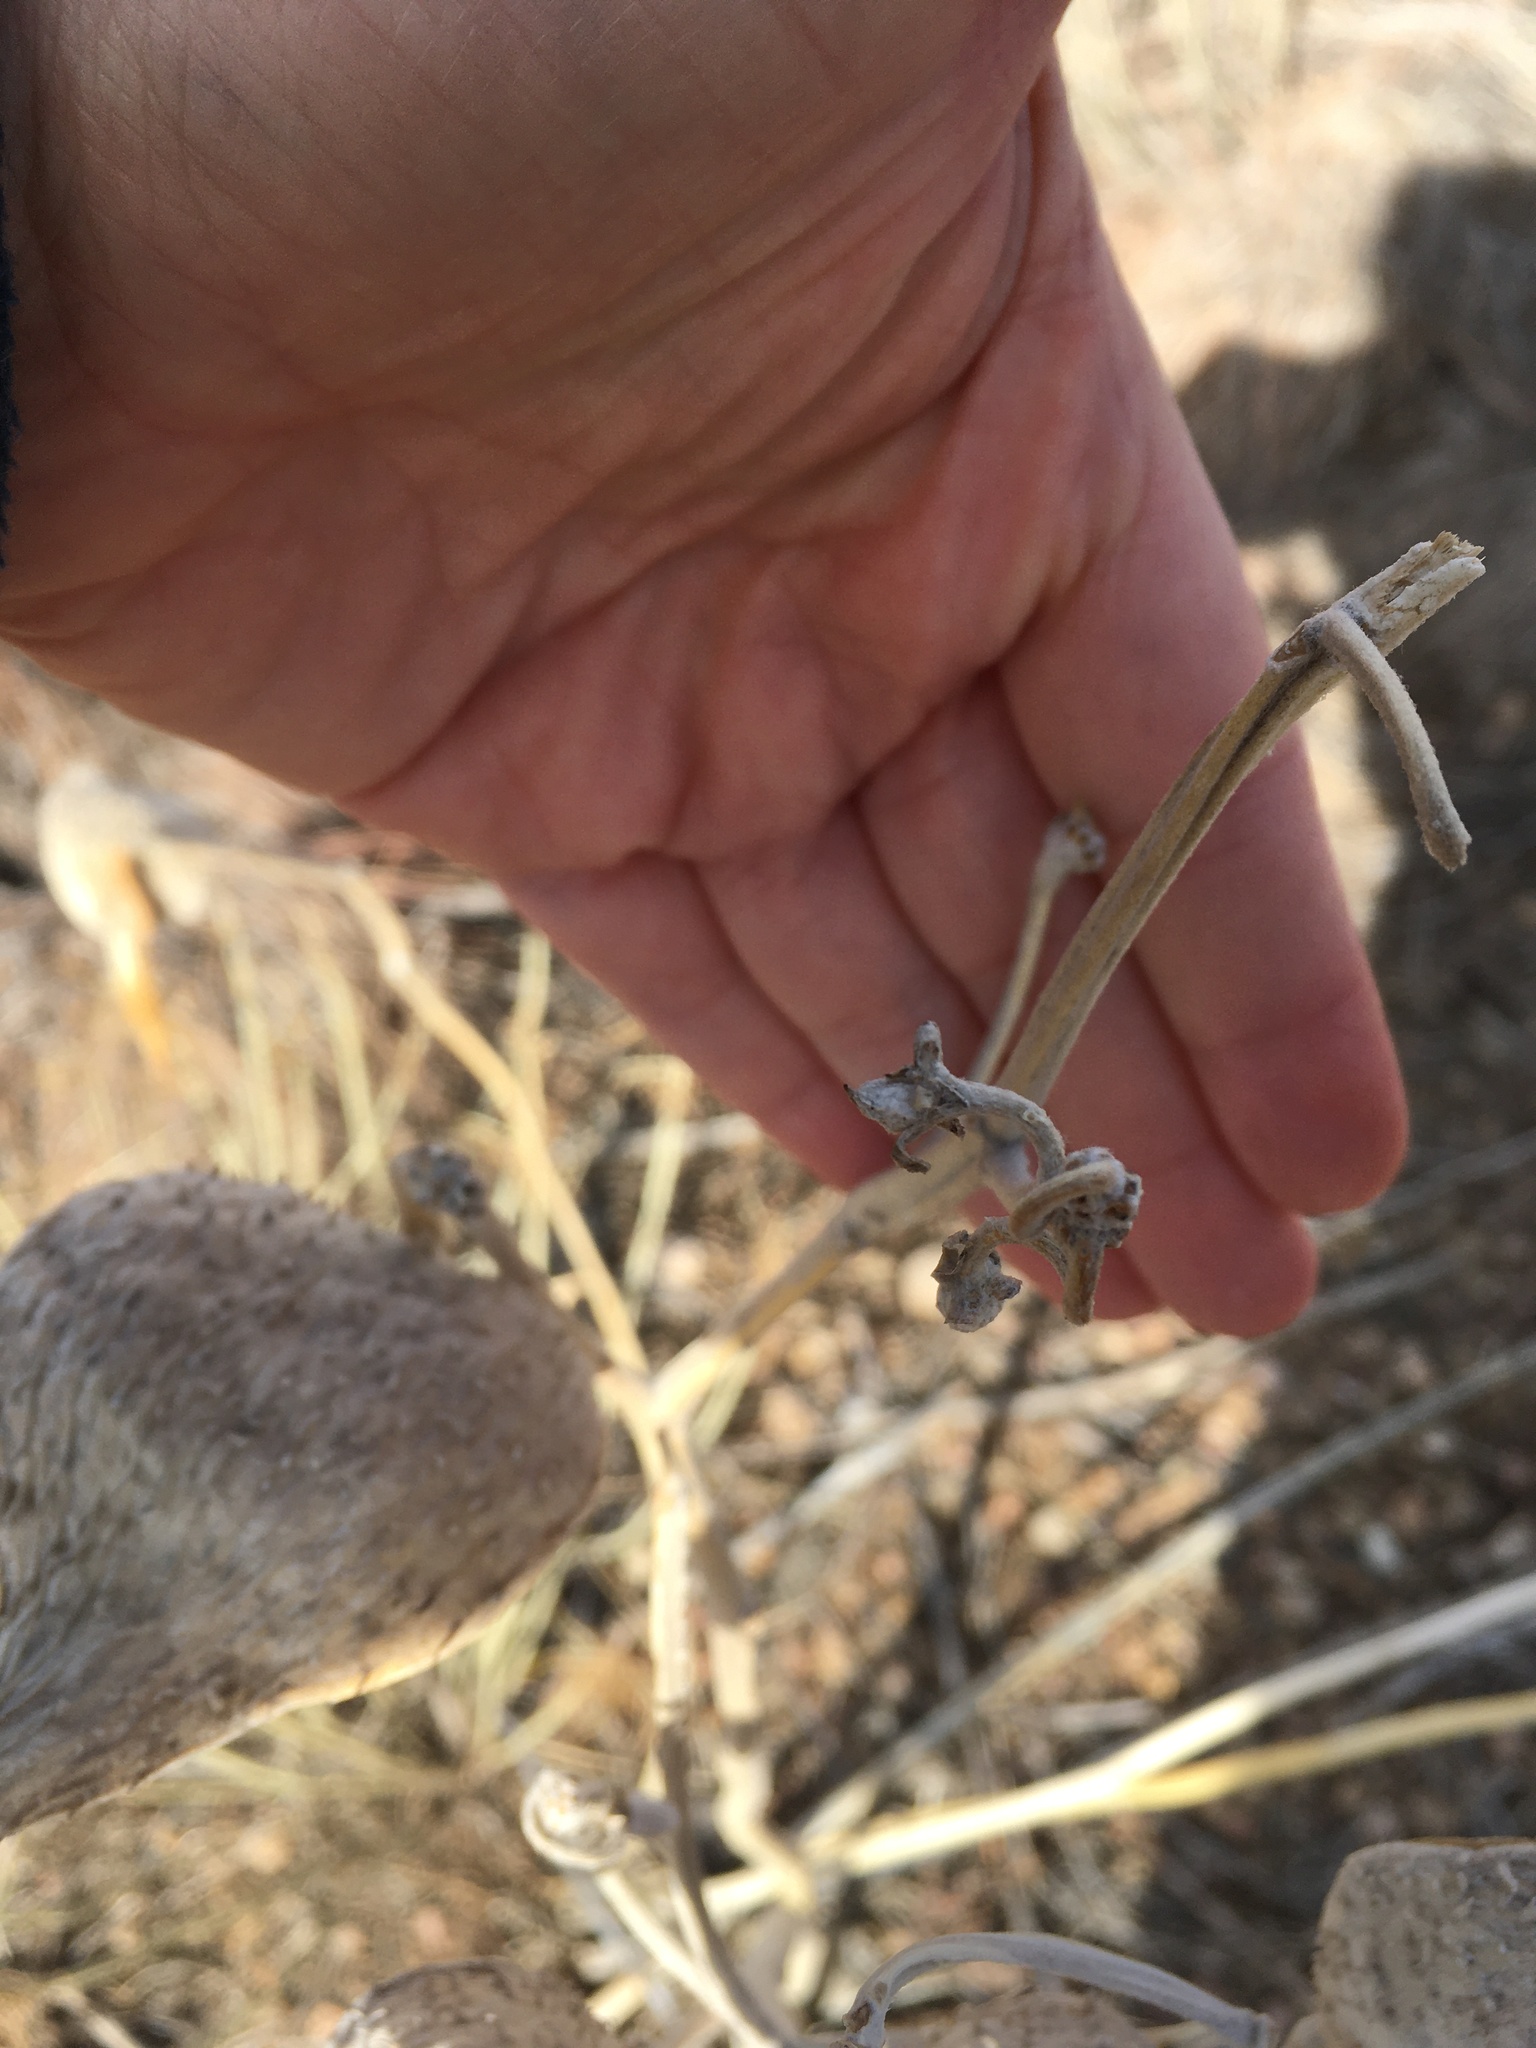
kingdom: Plantae
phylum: Tracheophyta
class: Magnoliopsida
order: Gentianales
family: Apocynaceae
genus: Asclepias
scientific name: Asclepias speciosa
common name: Showy milkweed
